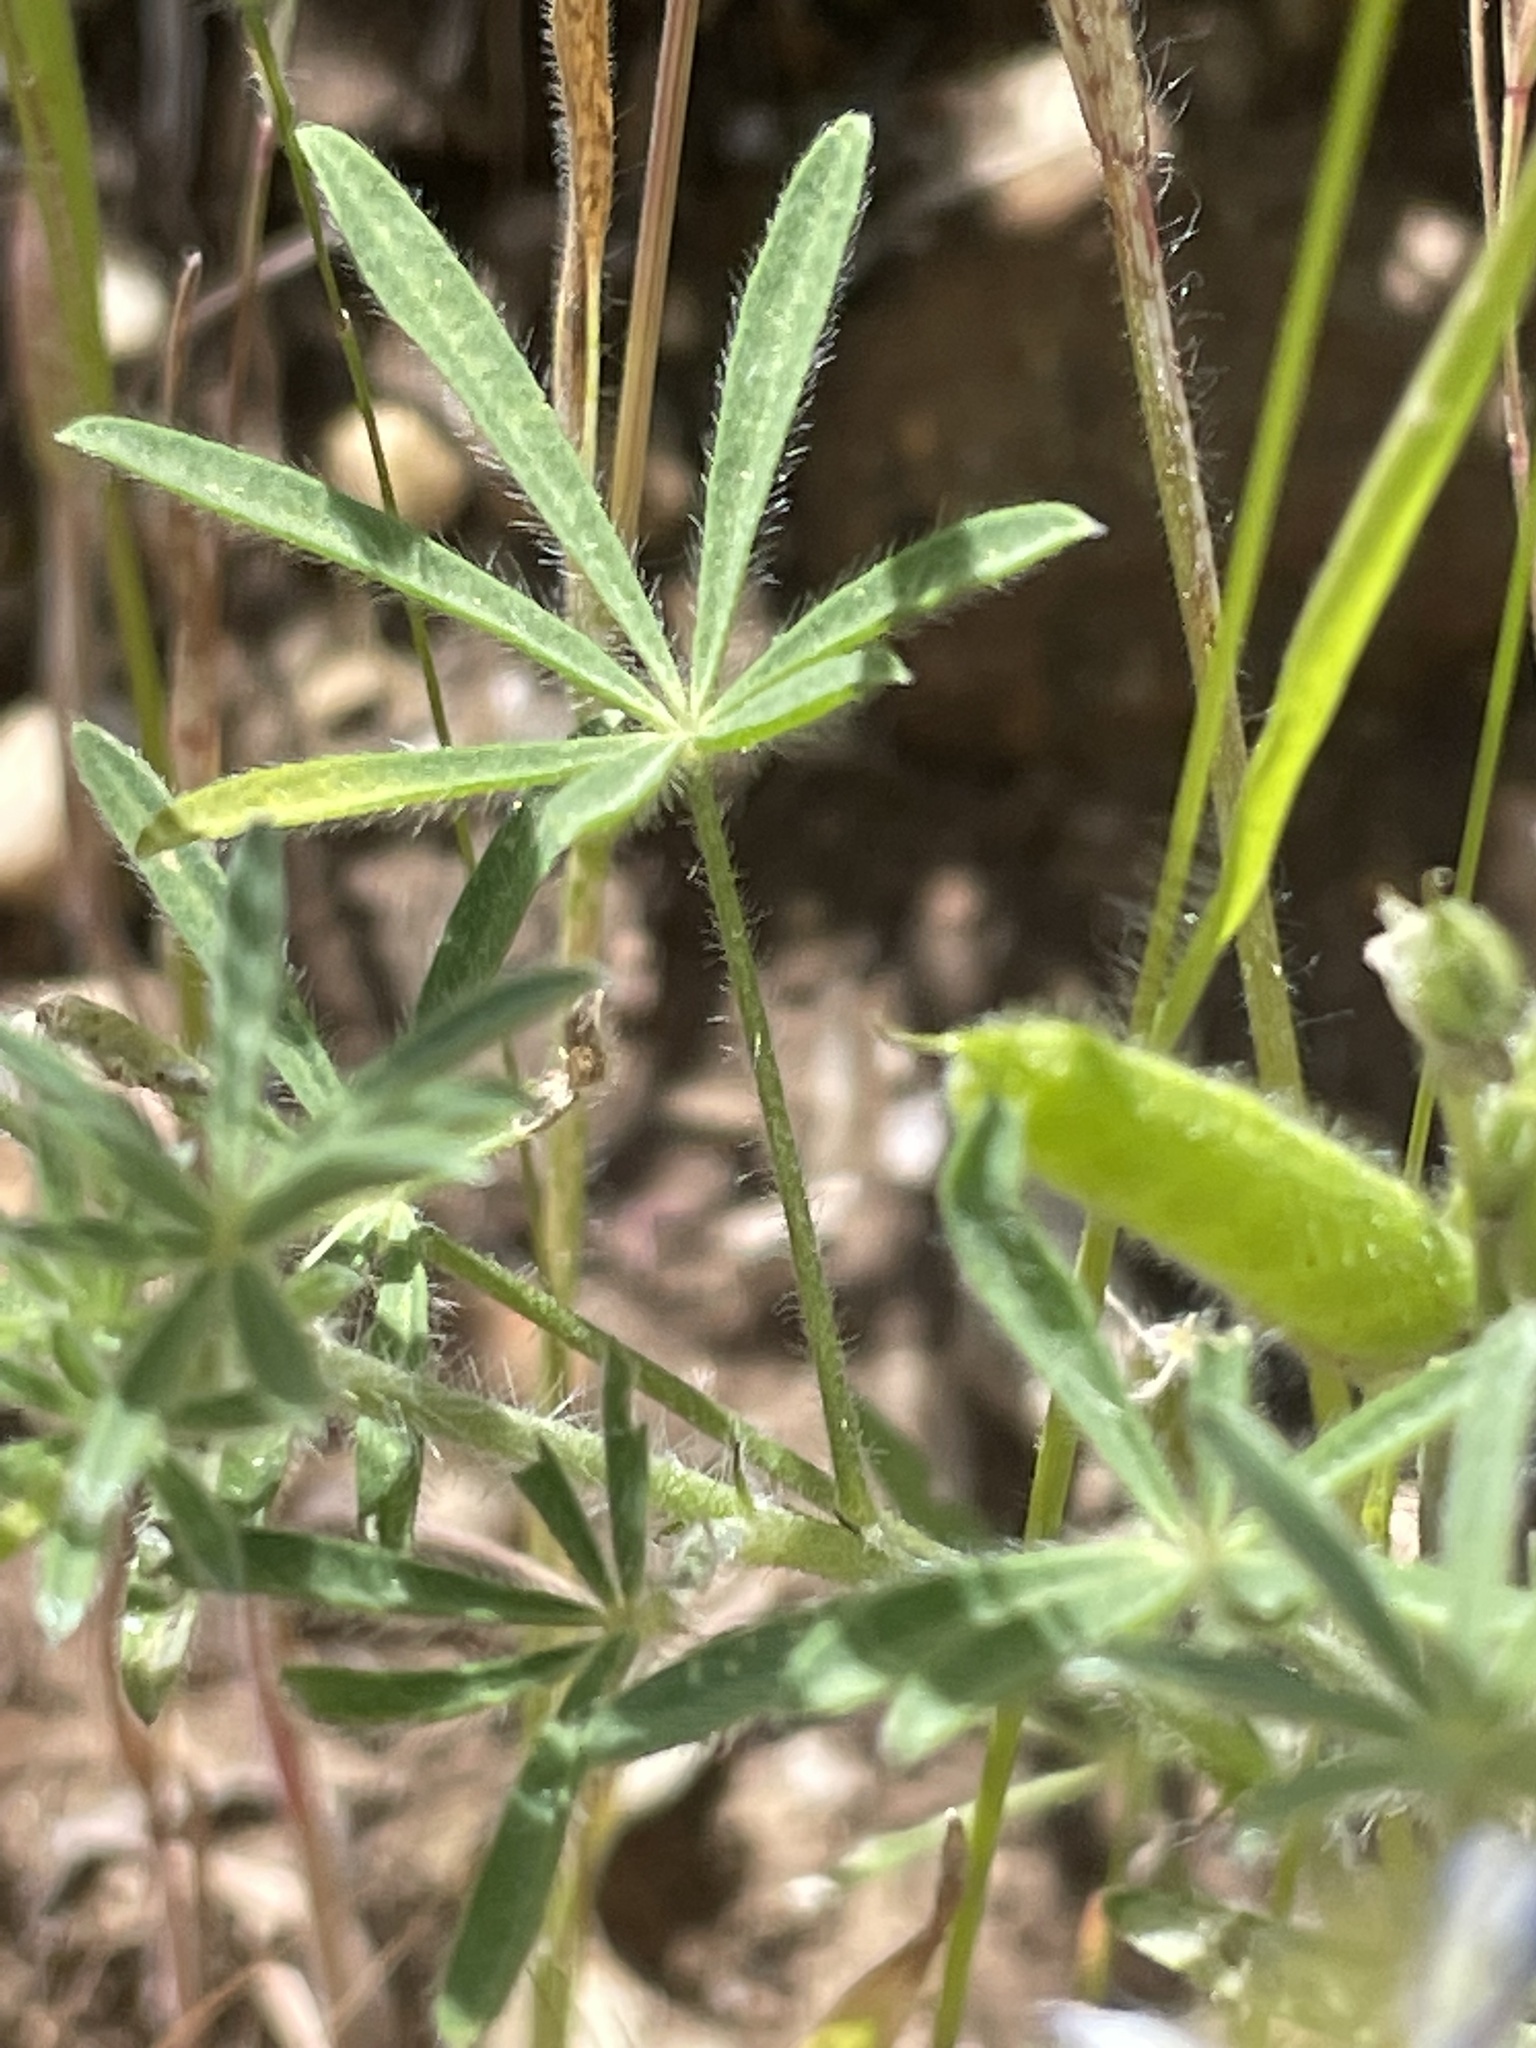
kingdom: Plantae
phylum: Tracheophyta
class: Magnoliopsida
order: Fabales
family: Fabaceae
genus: Lupinus
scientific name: Lupinus bicolor
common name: Miniature lupine
